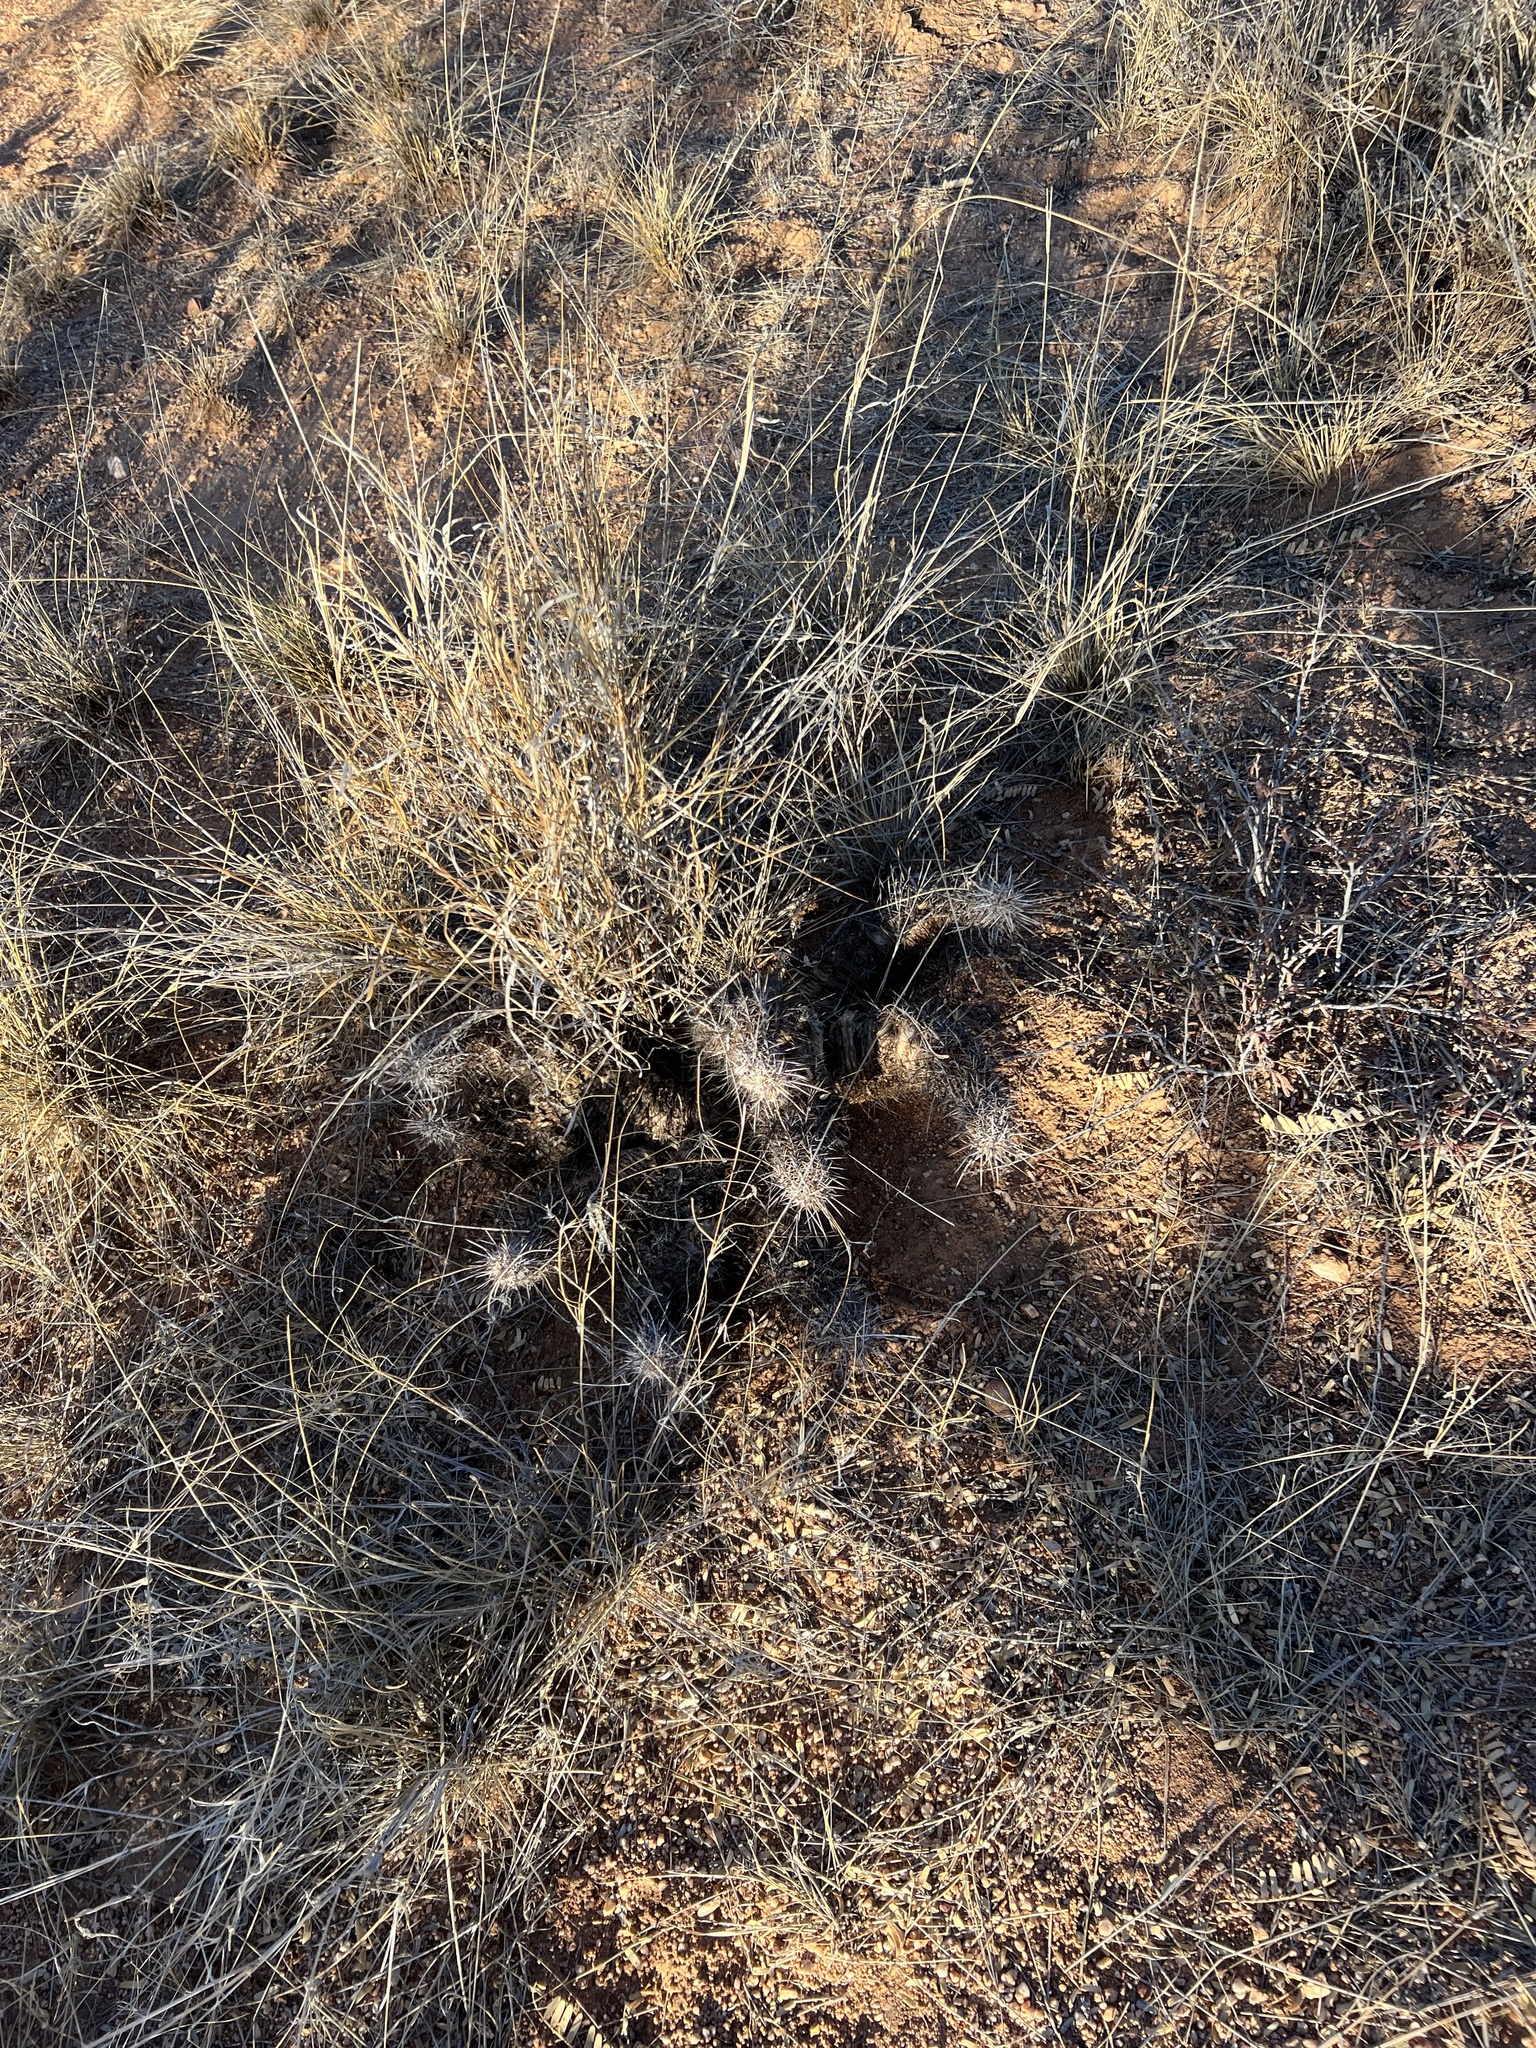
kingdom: Plantae
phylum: Tracheophyta
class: Magnoliopsida
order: Caryophyllales
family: Cactaceae
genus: Echinocereus
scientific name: Echinocereus fasciculatus
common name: Bundle hedgehog
